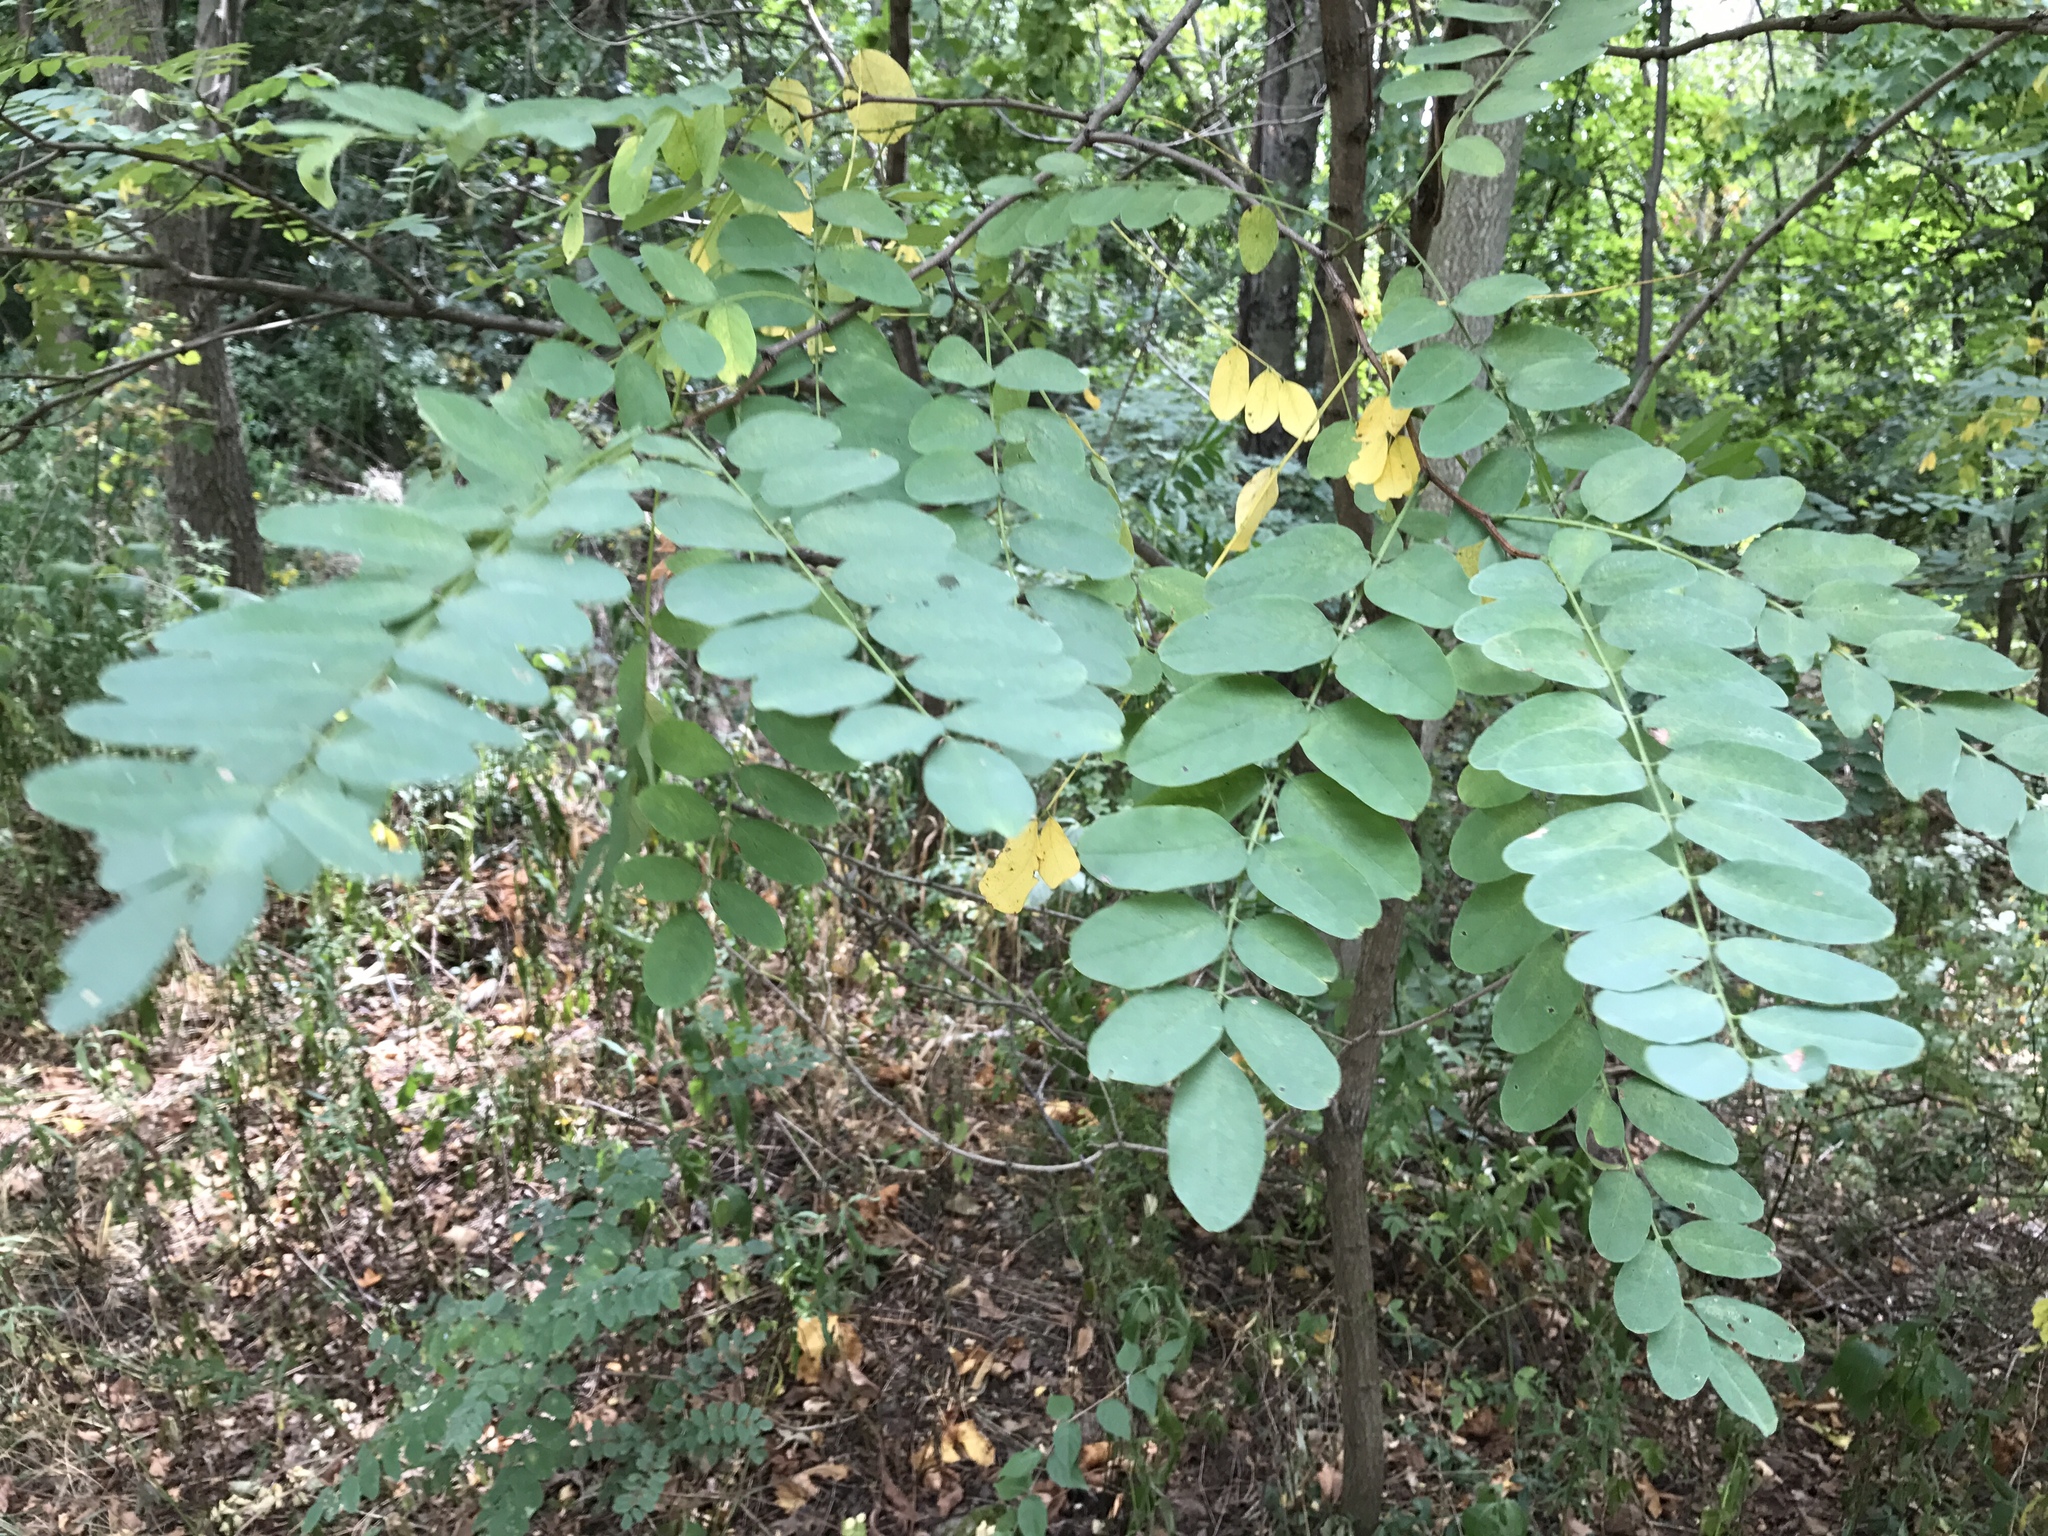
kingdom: Plantae
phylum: Tracheophyta
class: Magnoliopsida
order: Fabales
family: Fabaceae
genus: Robinia
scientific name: Robinia pseudoacacia
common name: Black locust
